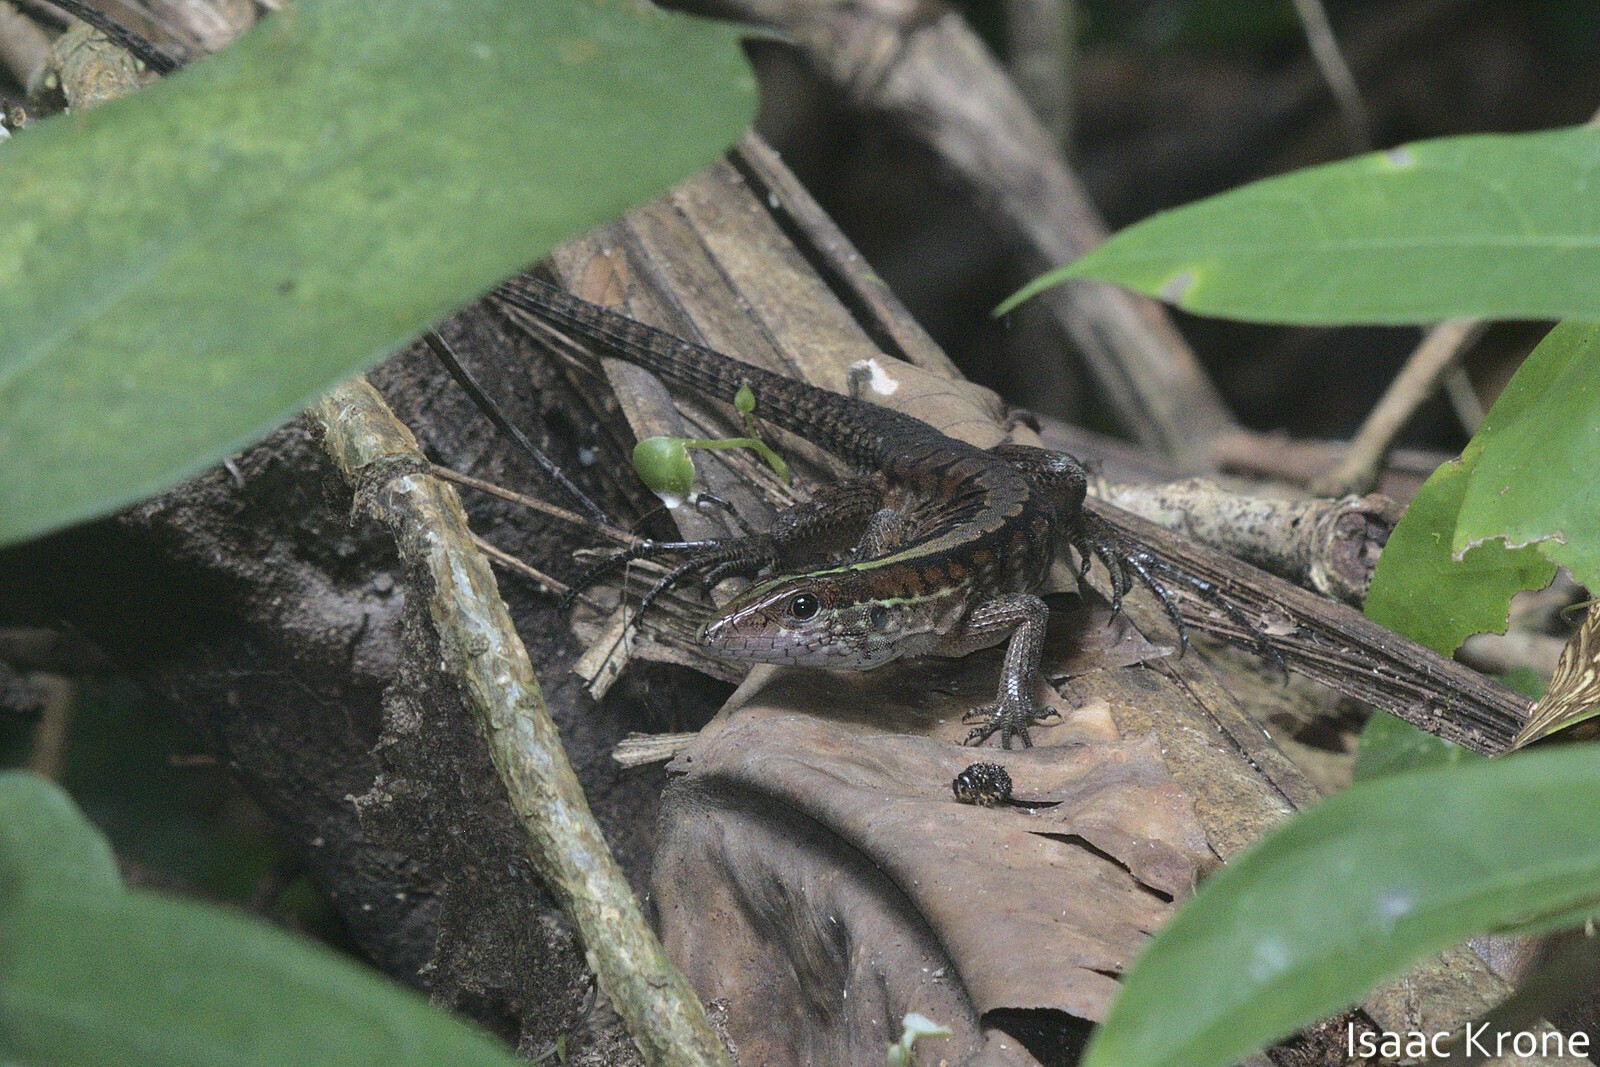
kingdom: Animalia
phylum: Chordata
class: Squamata
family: Teiidae
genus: Kentropyx
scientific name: Kentropyx pelviceps
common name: Forest whiptail
